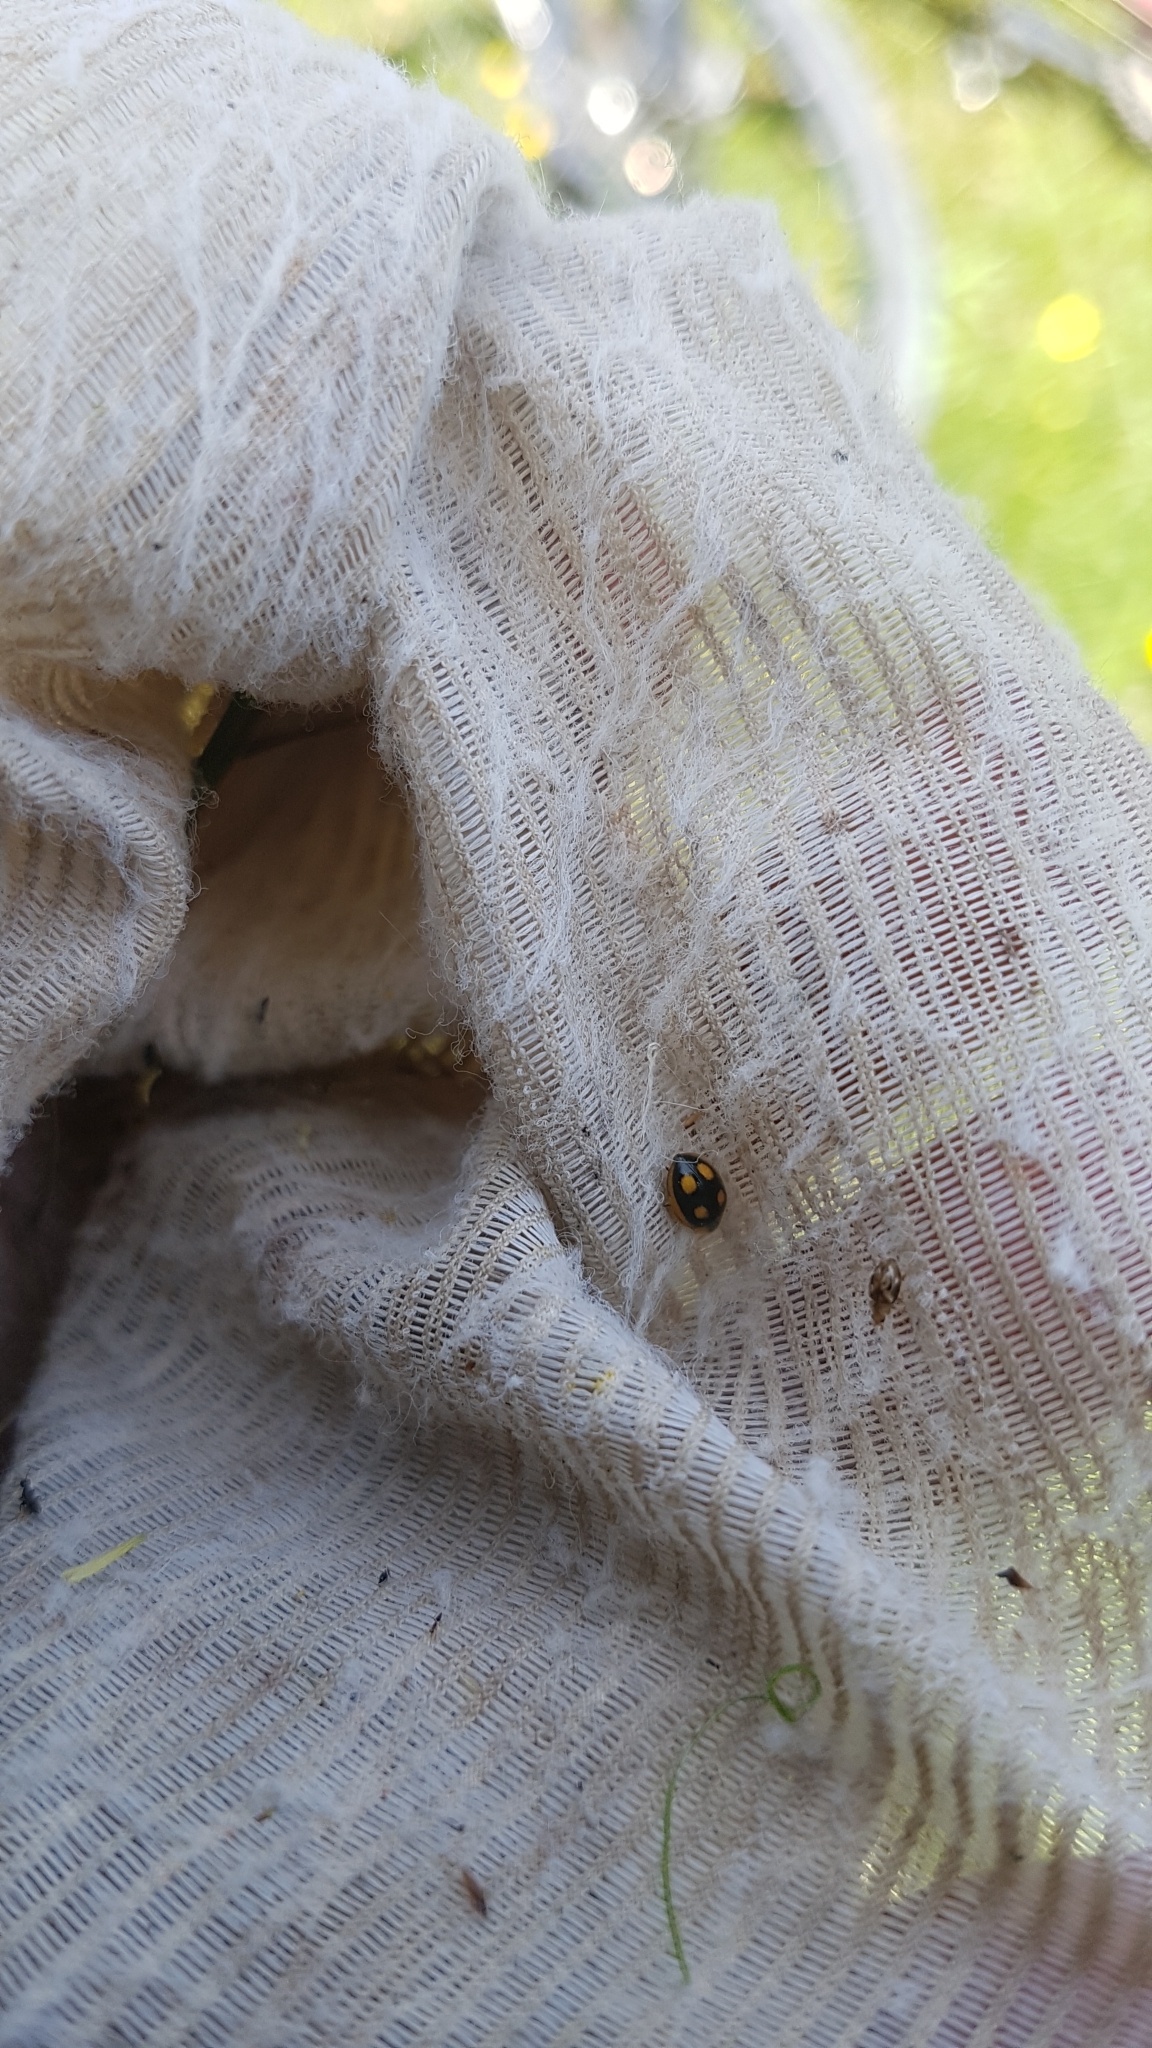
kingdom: Animalia
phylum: Arthropoda
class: Insecta
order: Coleoptera
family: Coccinellidae
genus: Hoangus
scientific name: Hoangus
